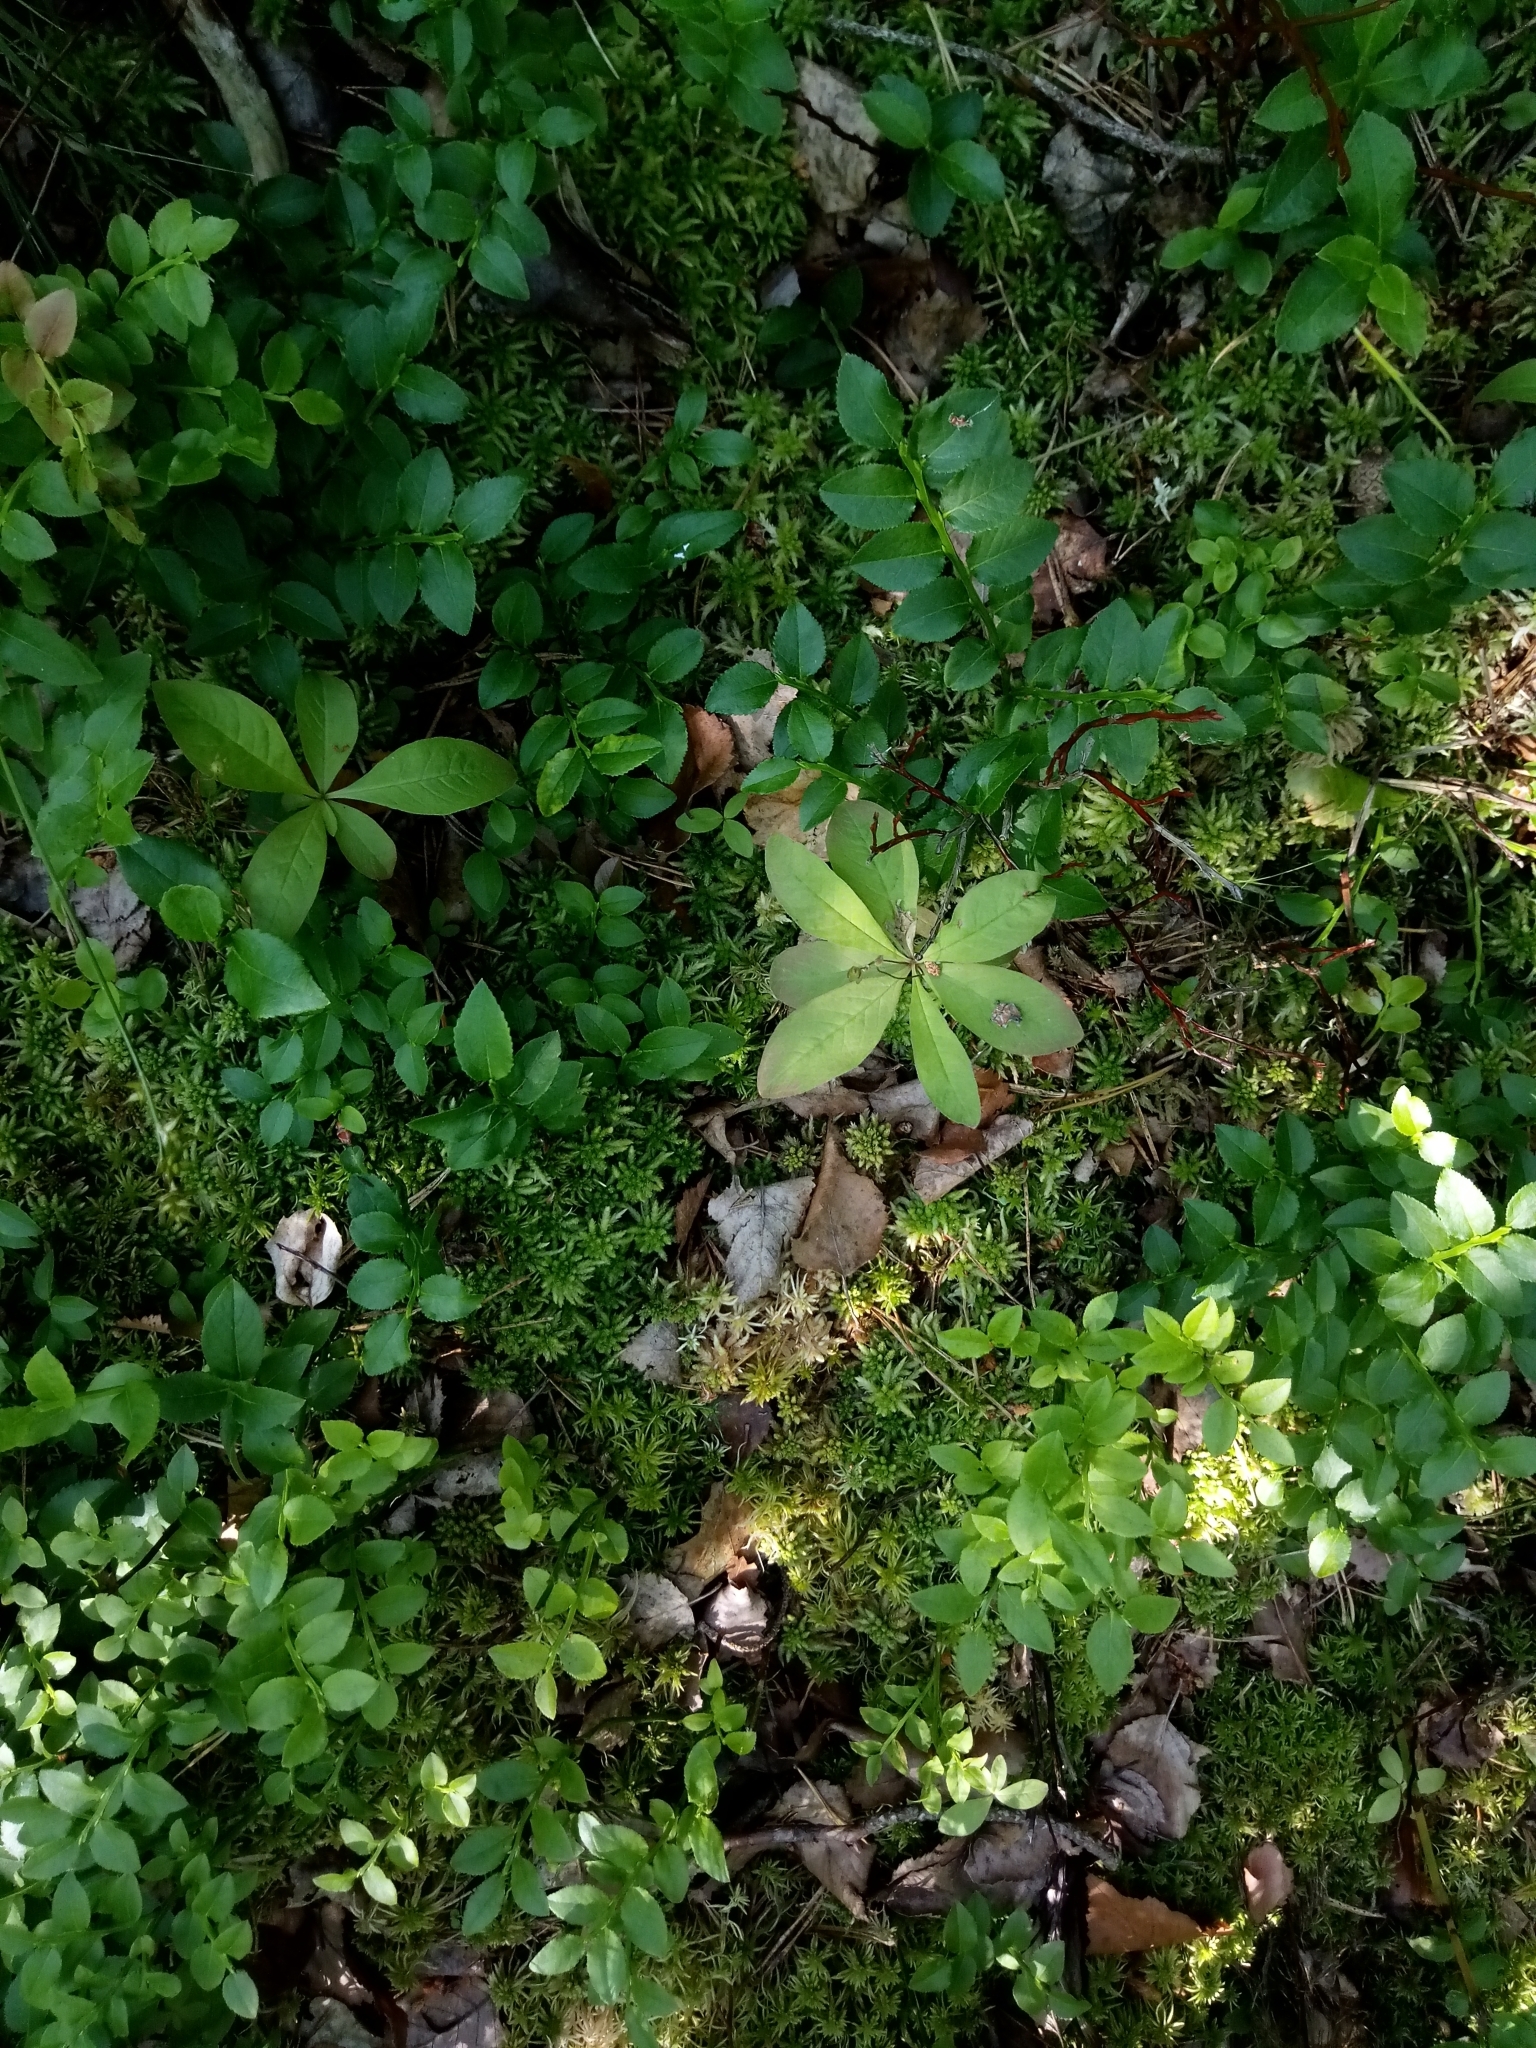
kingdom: Plantae
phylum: Tracheophyta
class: Magnoliopsida
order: Ericales
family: Primulaceae
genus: Lysimachia
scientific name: Lysimachia europaea
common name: Arctic starflower
